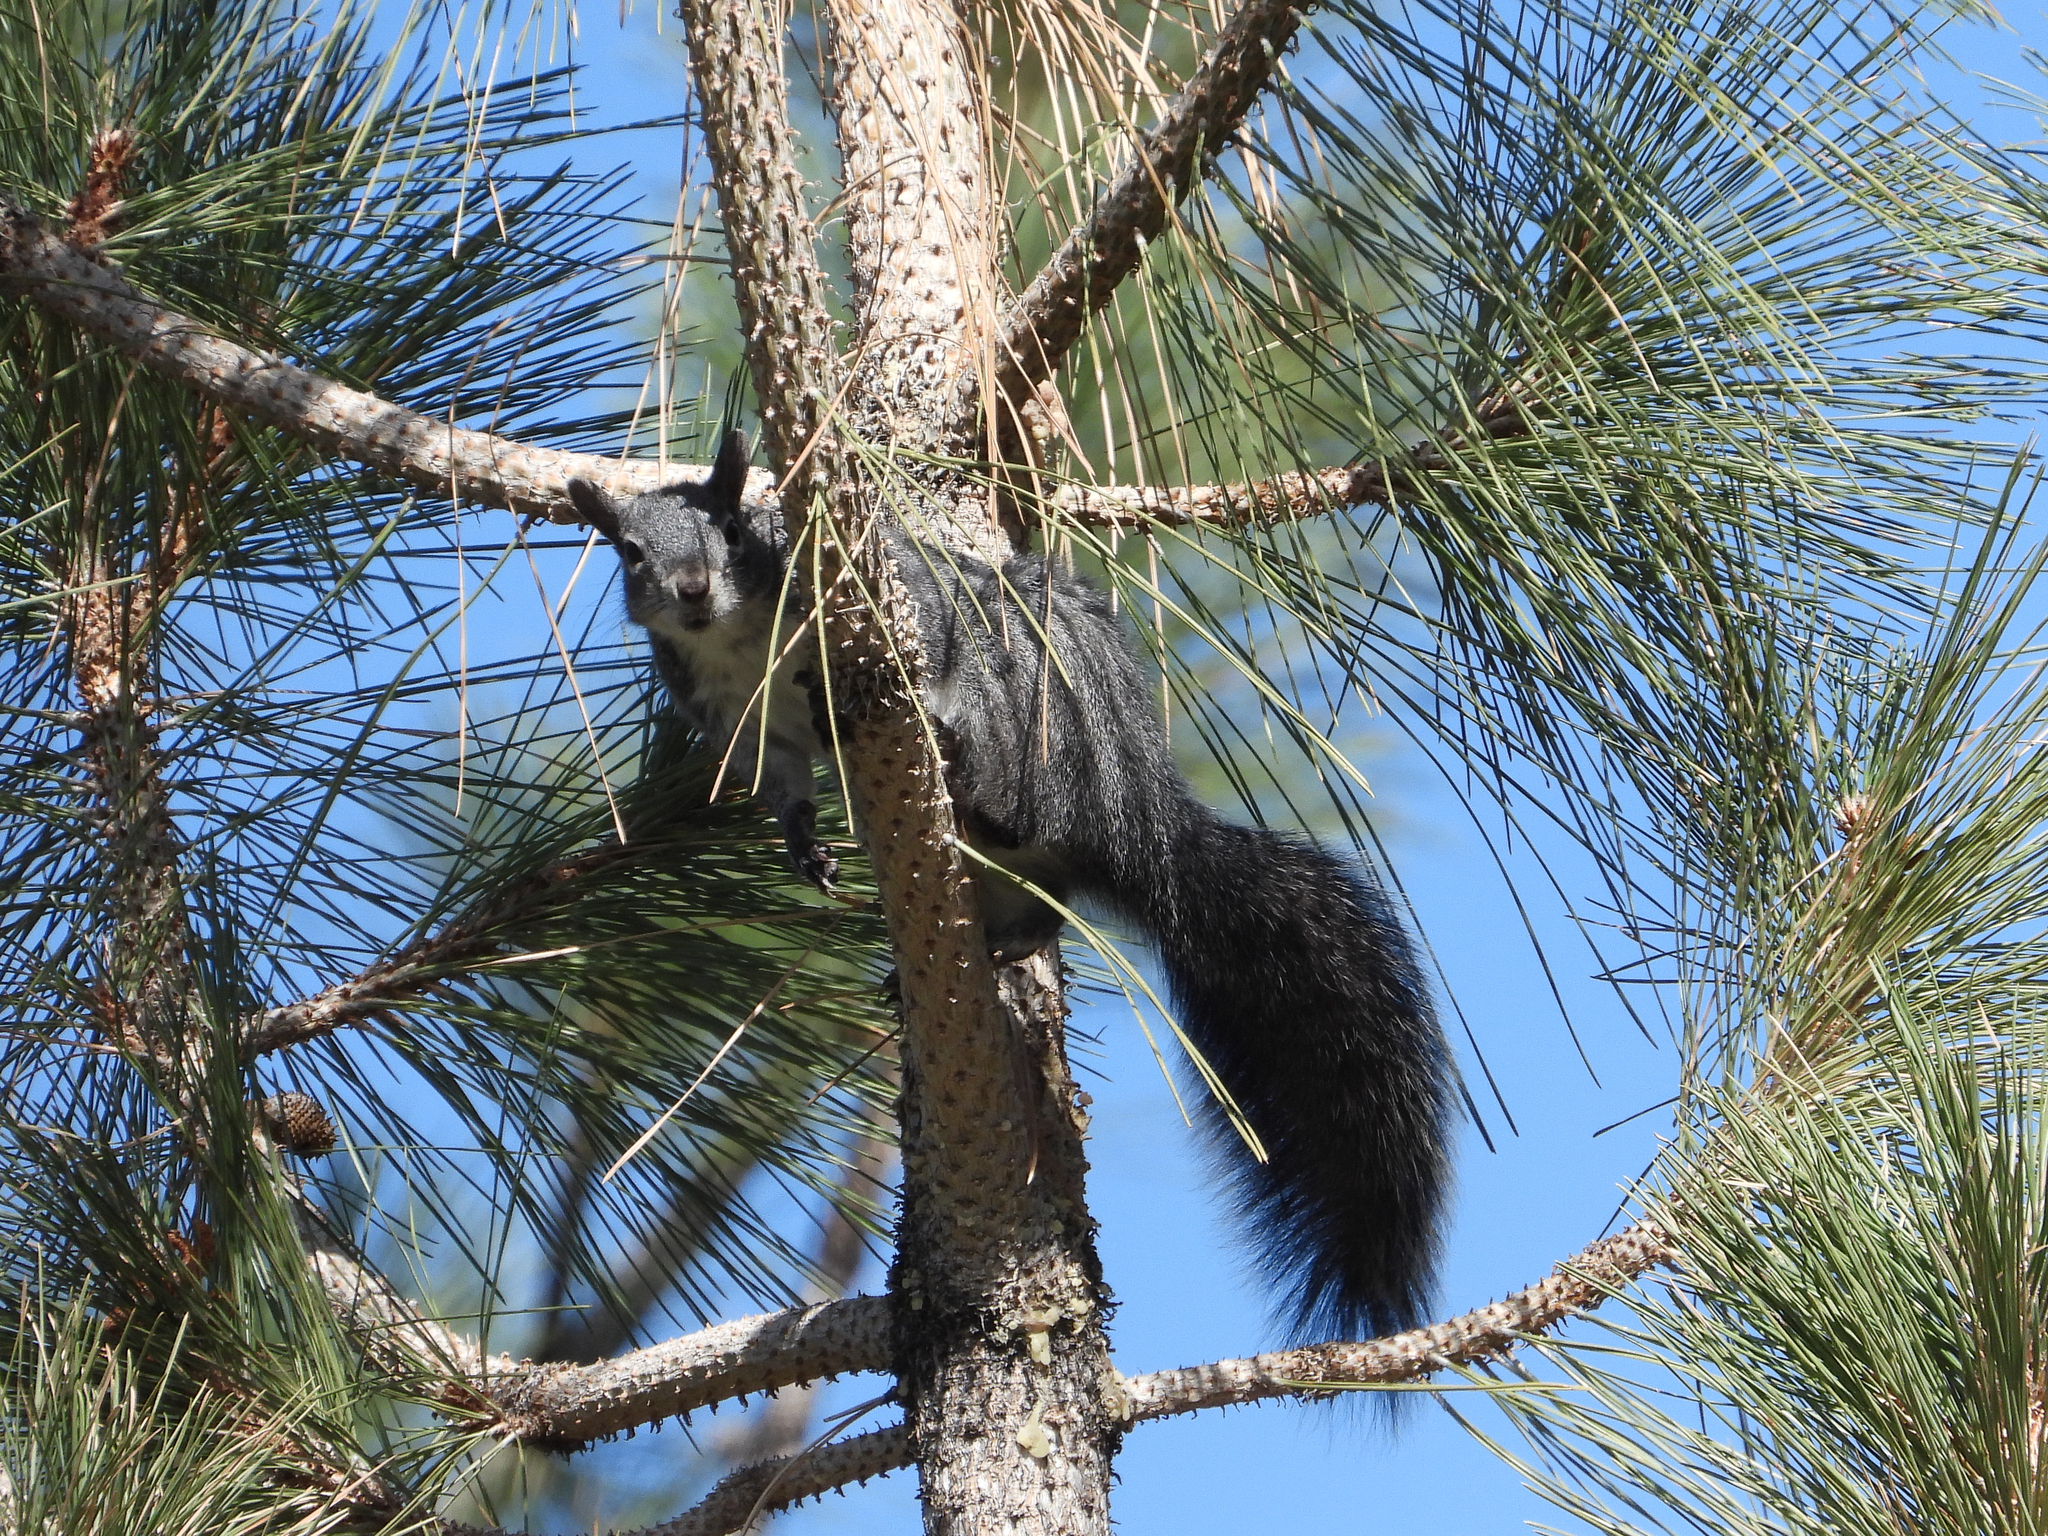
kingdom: Animalia
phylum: Chordata
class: Mammalia
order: Rodentia
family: Sciuridae
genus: Sciurus
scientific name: Sciurus griseus
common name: Western gray squirrel
